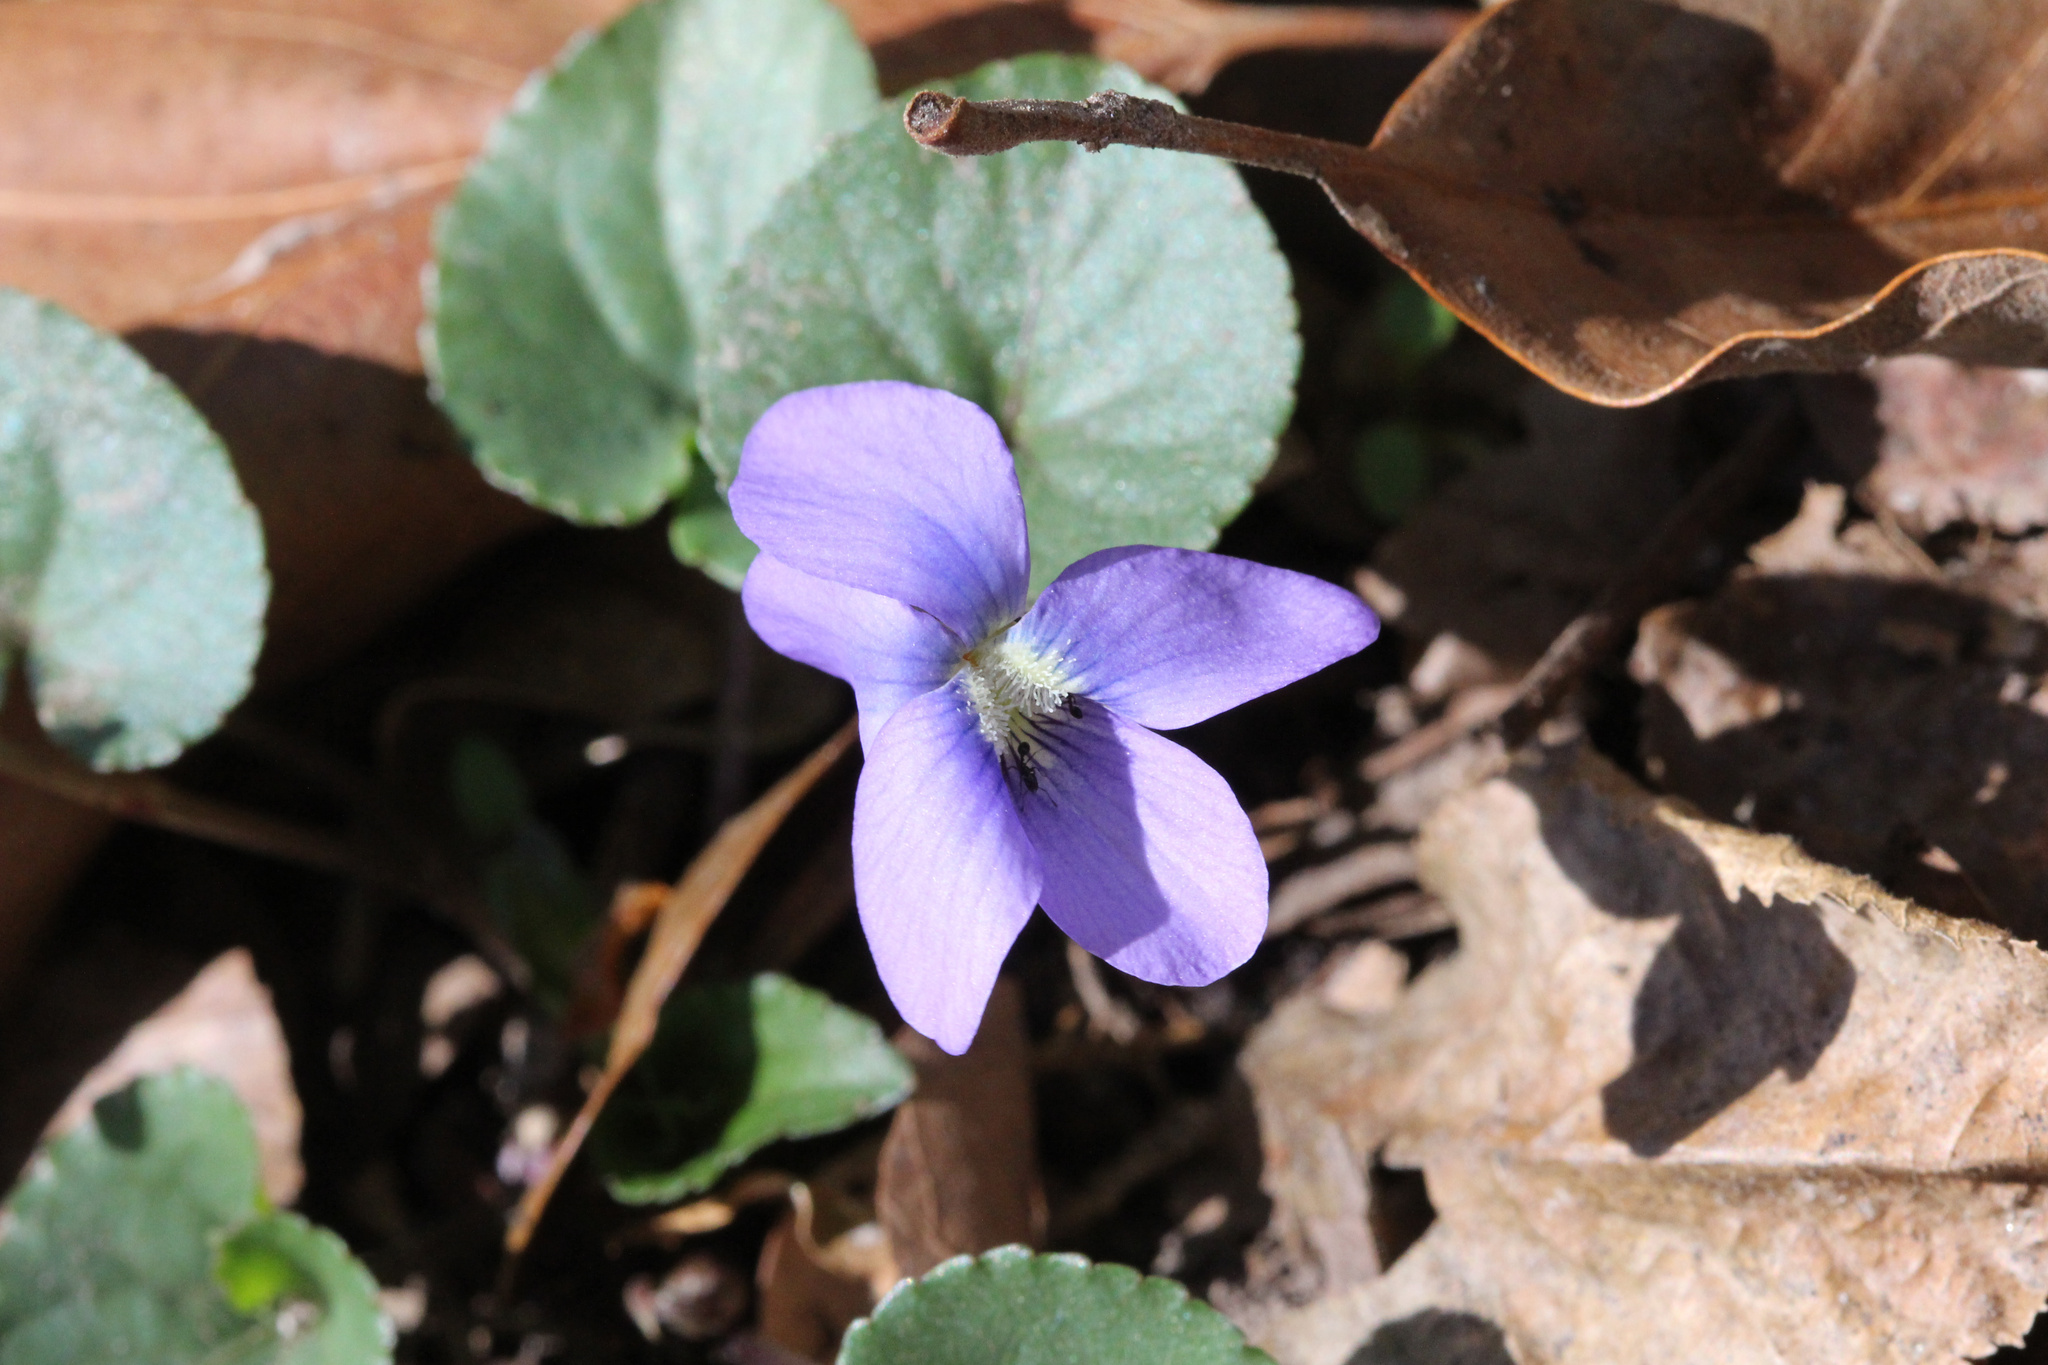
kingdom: Plantae
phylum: Tracheophyta
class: Magnoliopsida
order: Malpighiales
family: Violaceae
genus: Viola
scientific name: Viola sororia
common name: Dooryard violet
